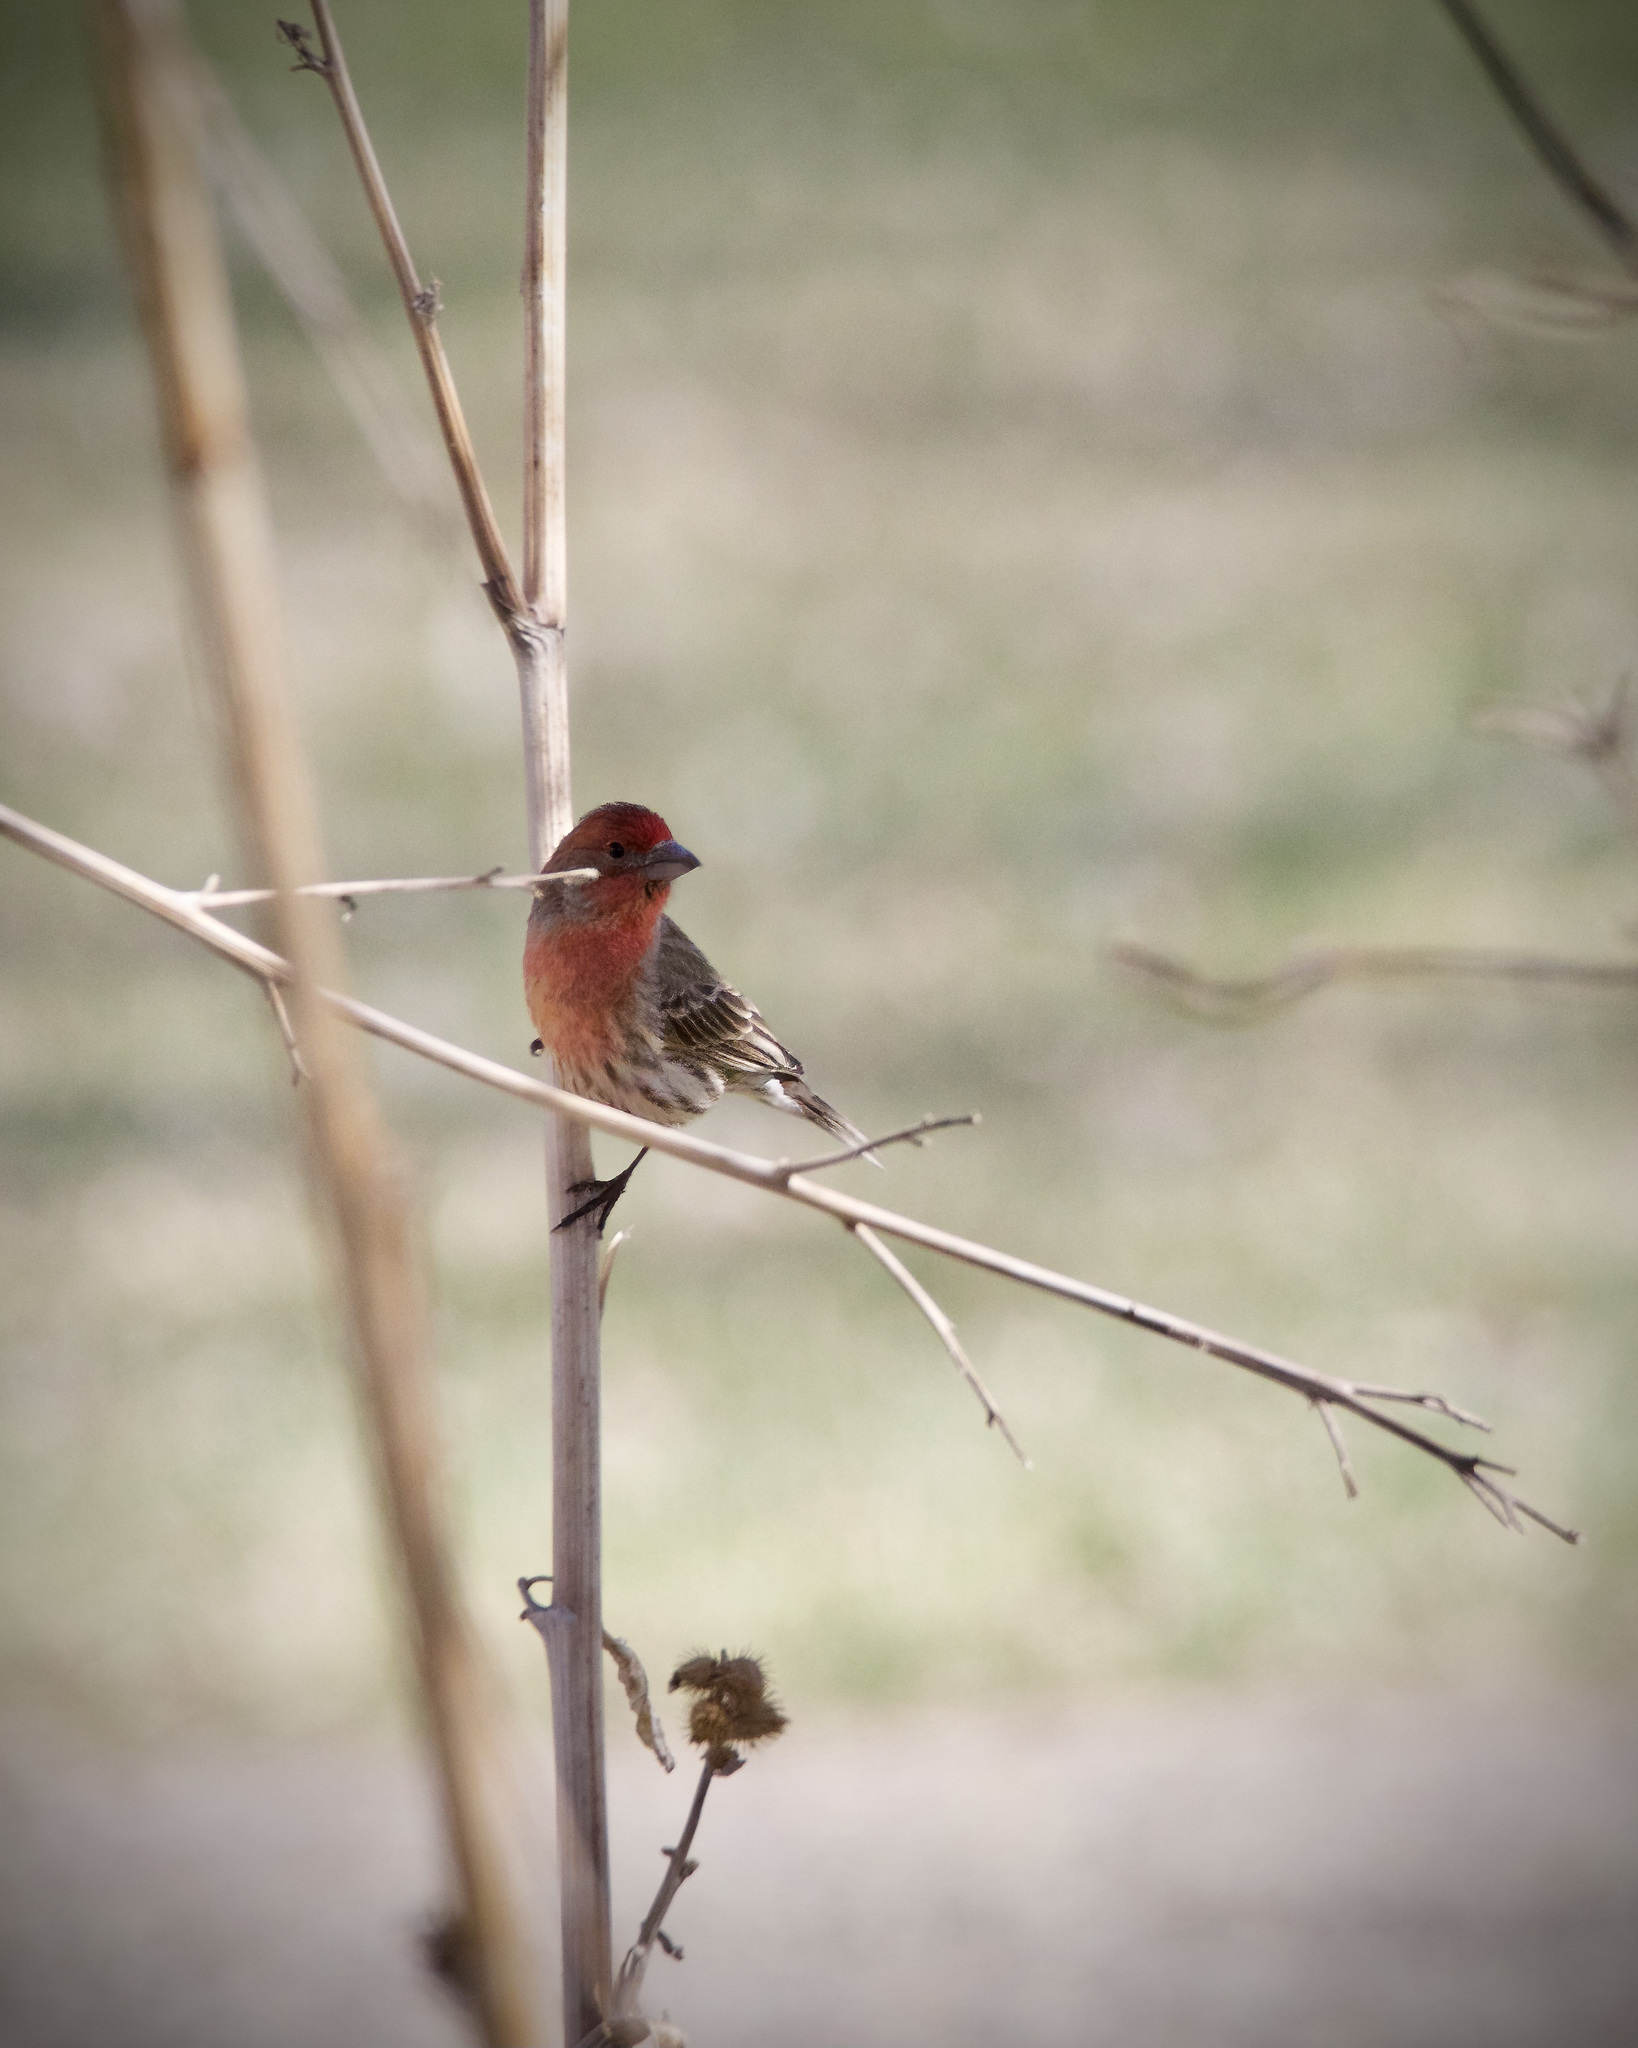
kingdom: Animalia
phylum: Chordata
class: Aves
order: Passeriformes
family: Fringillidae
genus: Haemorhous
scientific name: Haemorhous mexicanus
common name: House finch
